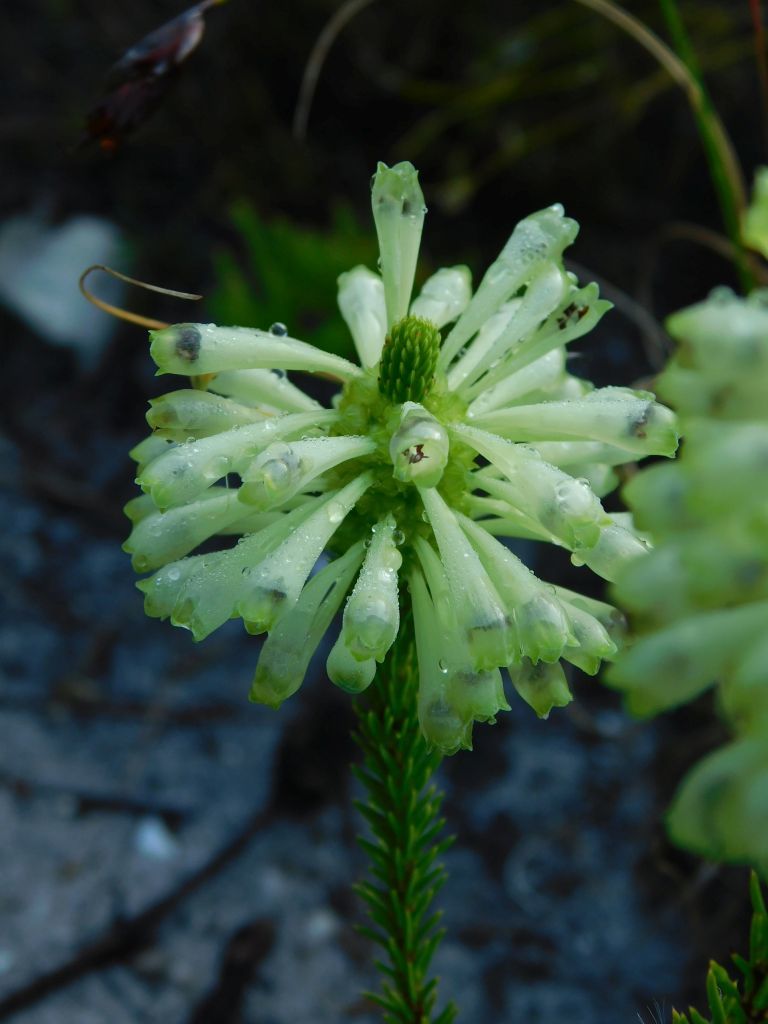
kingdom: Plantae
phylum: Tracheophyta
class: Magnoliopsida
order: Ericales
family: Ericaceae
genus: Erica
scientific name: Erica sessiliflora
